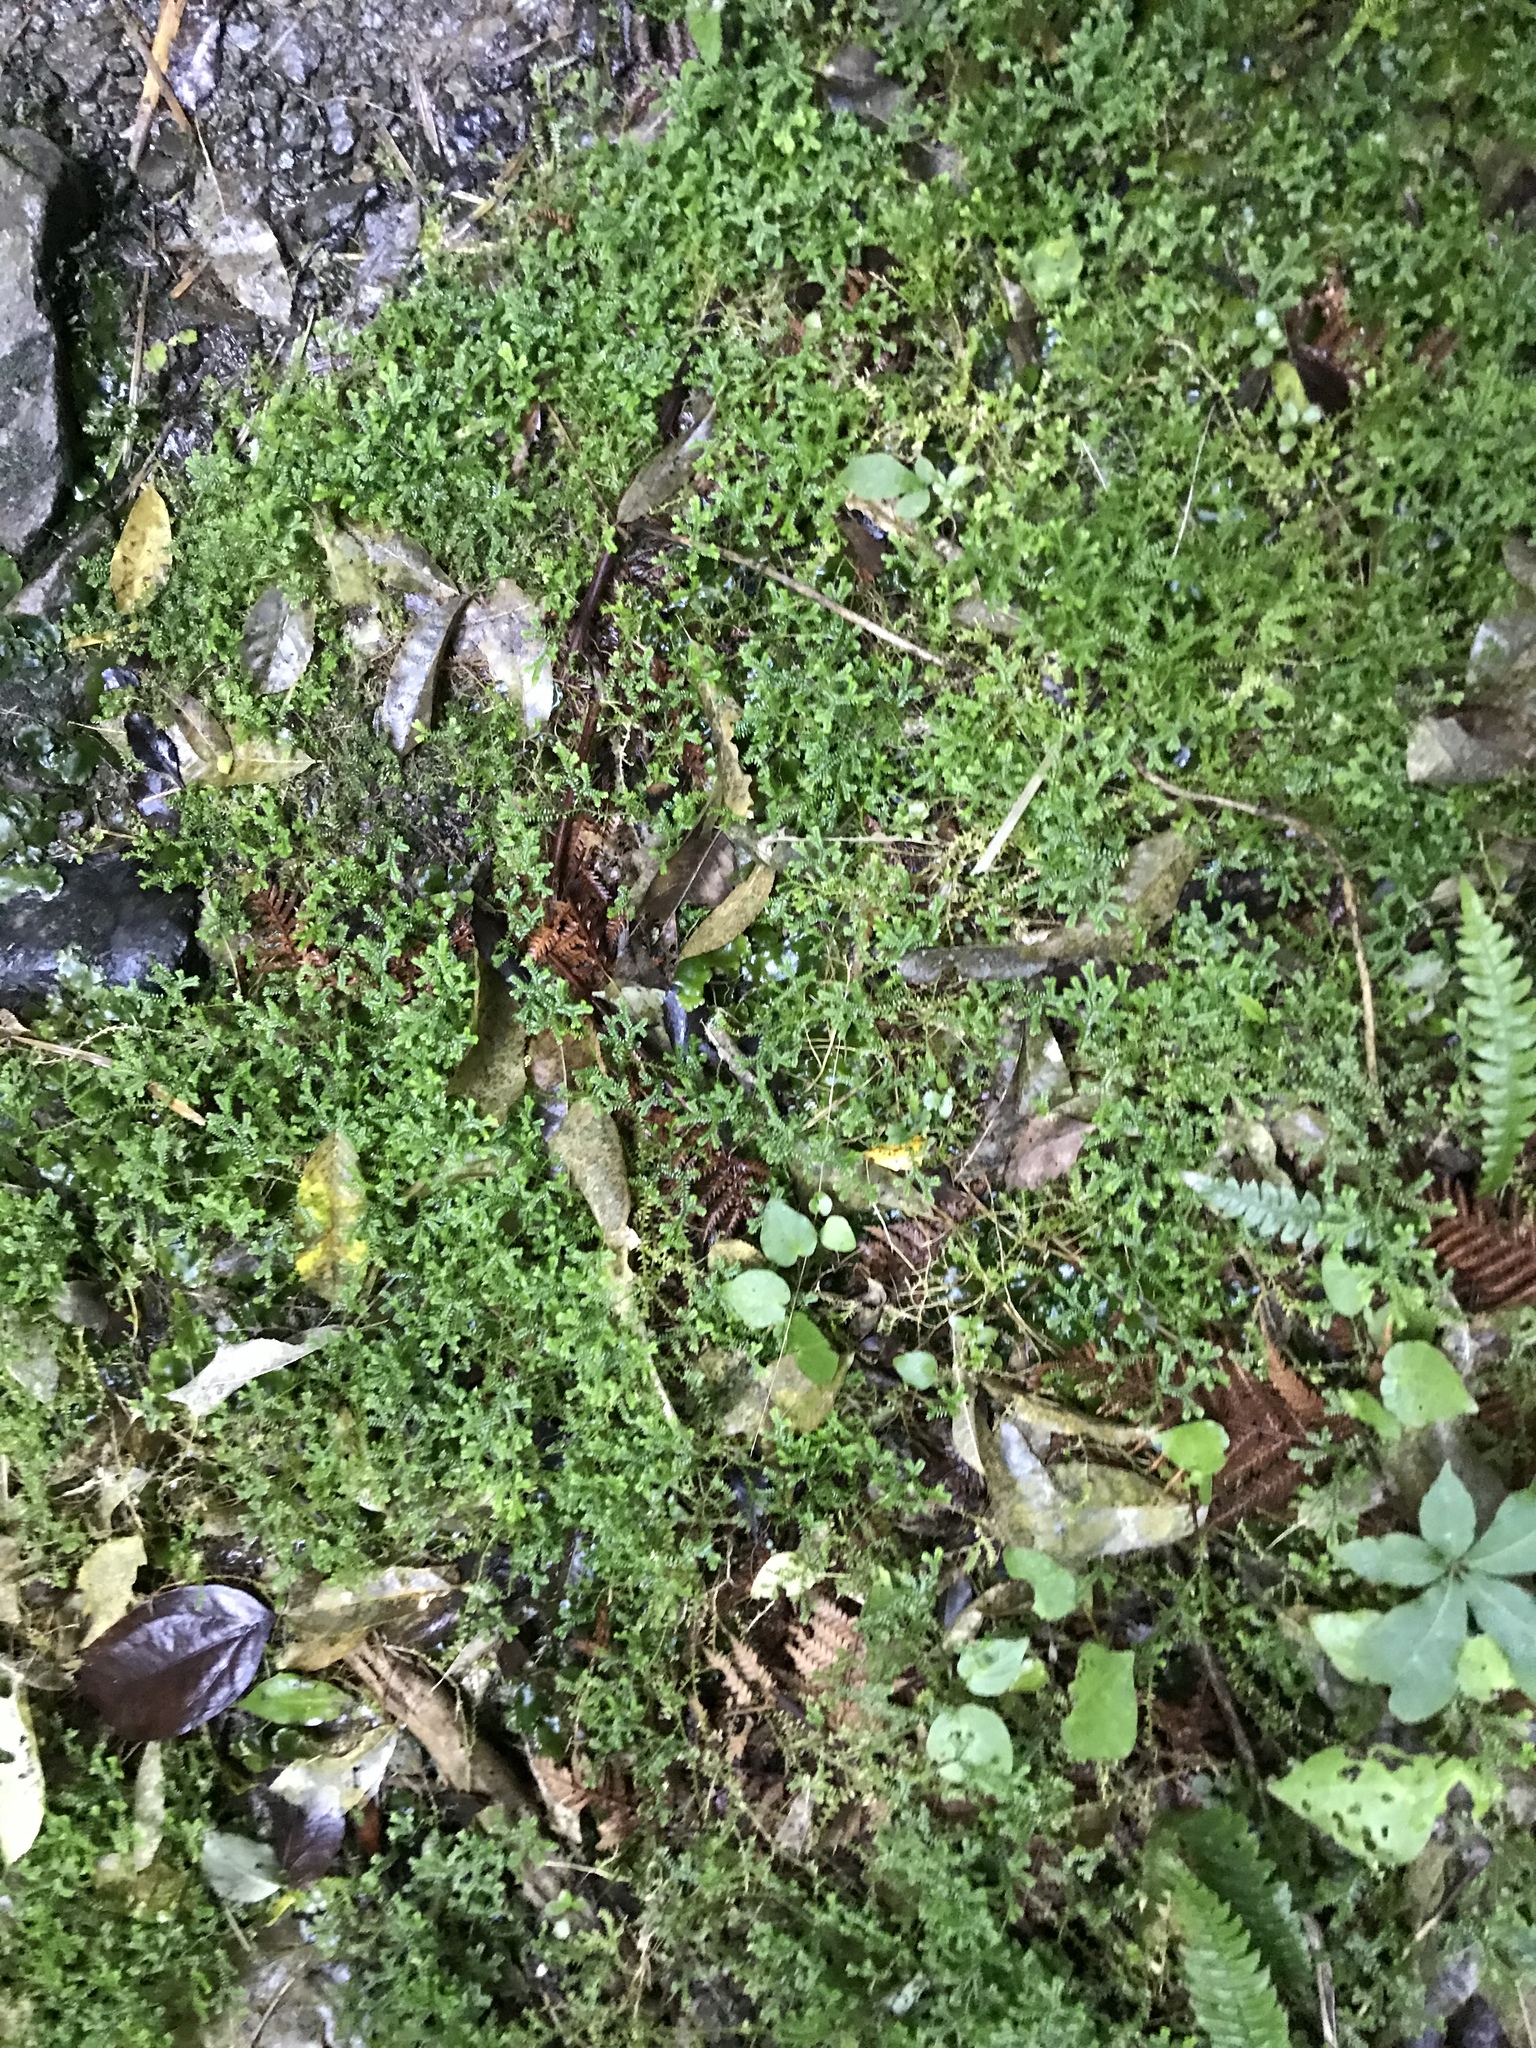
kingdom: Plantae
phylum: Tracheophyta
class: Lycopodiopsida
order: Selaginellales
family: Selaginellaceae
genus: Selaginella
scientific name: Selaginella kraussiana
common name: Krauss' spikemoss
